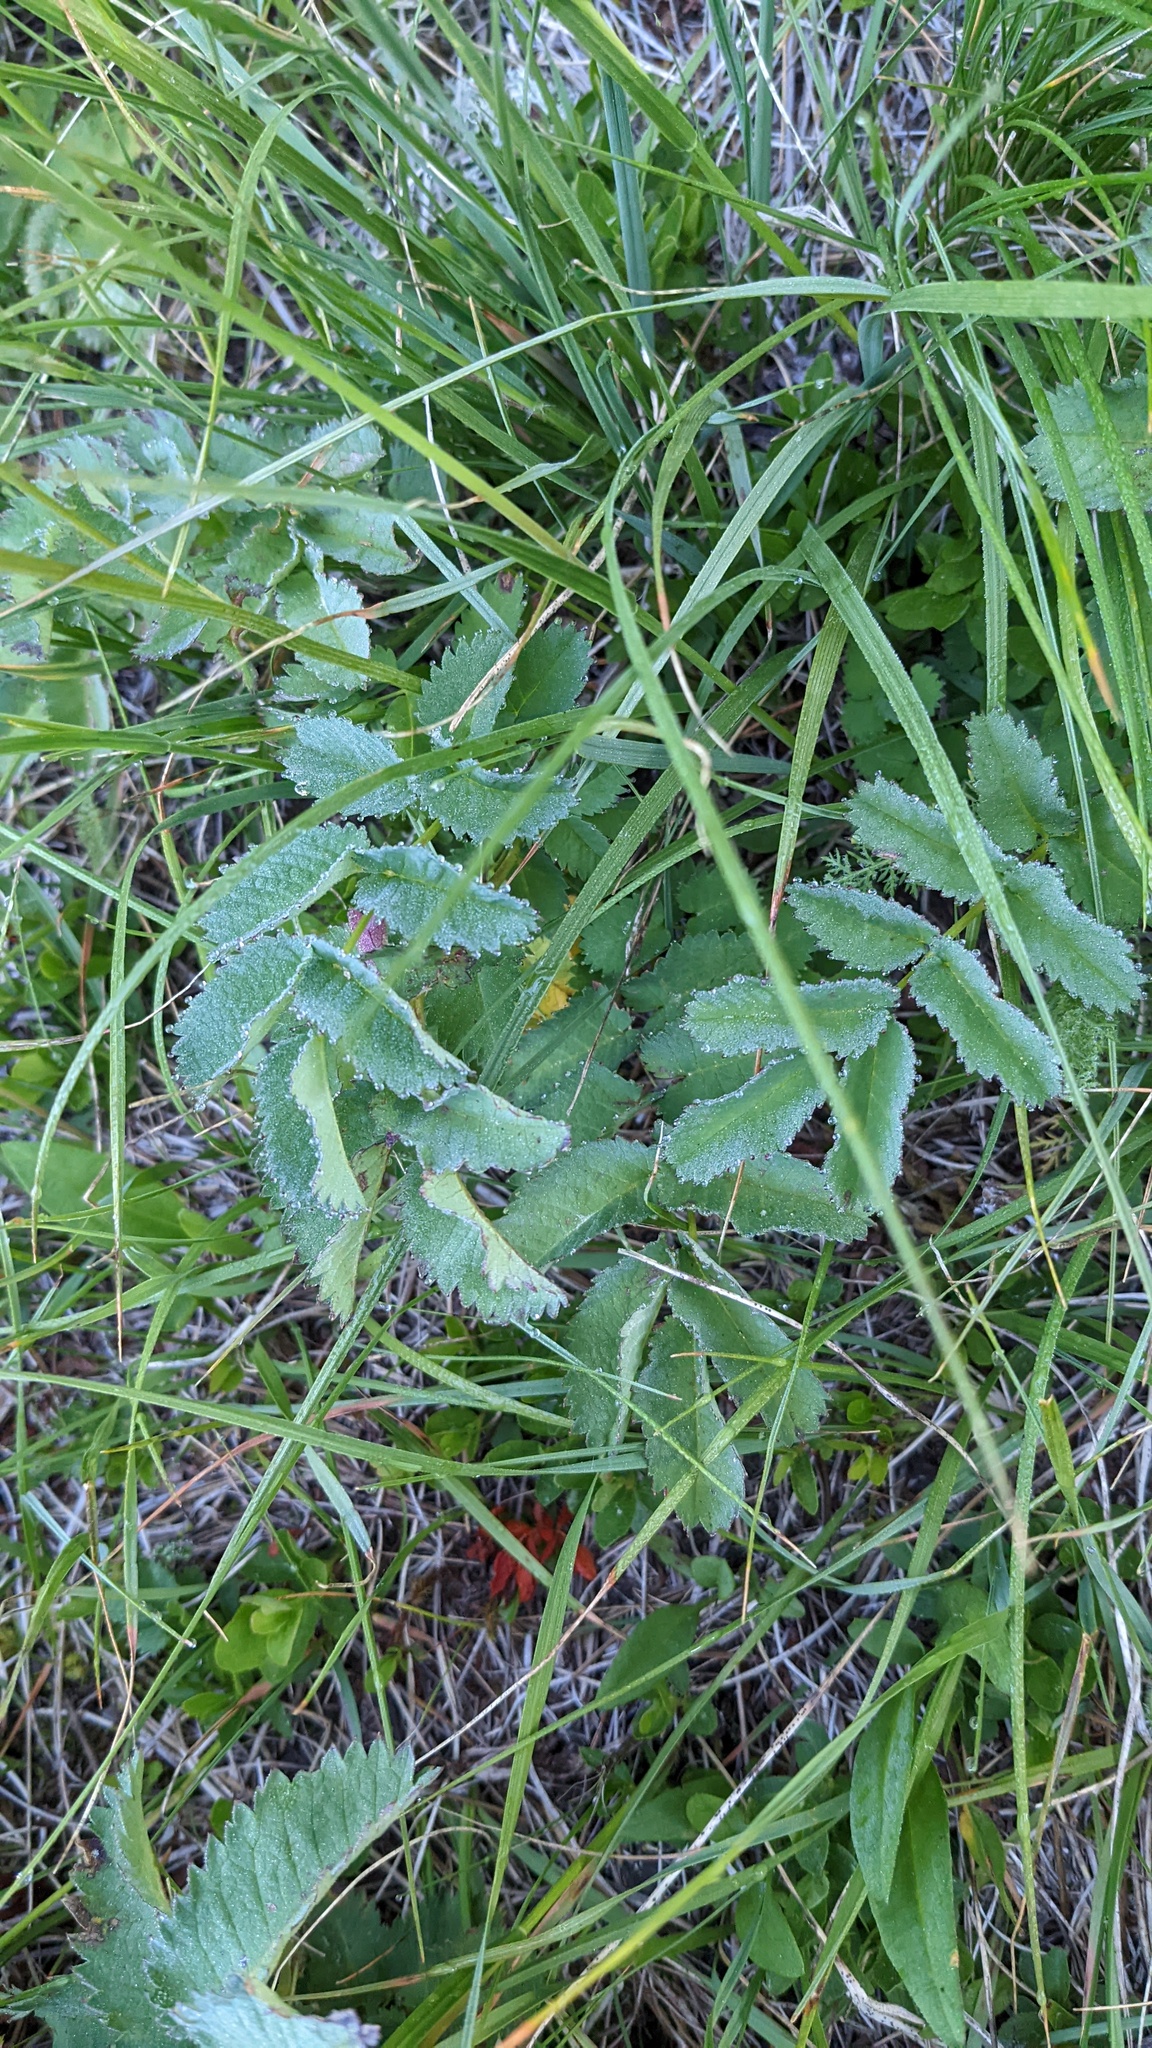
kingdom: Plantae
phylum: Tracheophyta
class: Magnoliopsida
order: Rosales
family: Rosaceae
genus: Sanguisorba
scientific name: Sanguisorba stipulata
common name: Sitka burnet
